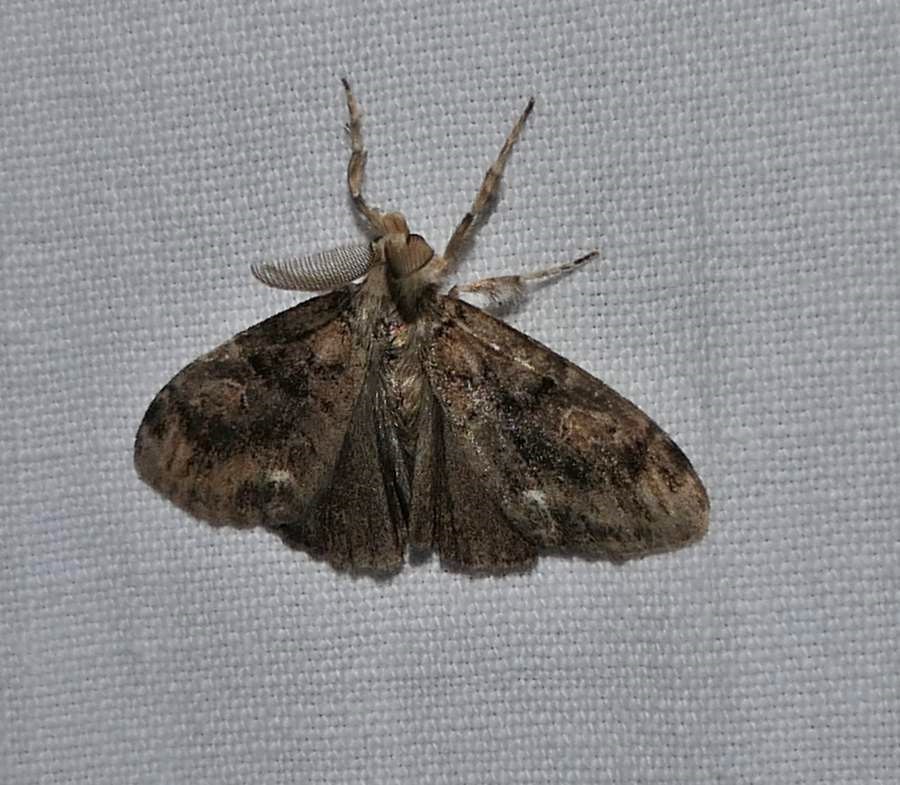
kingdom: Animalia
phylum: Arthropoda
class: Insecta
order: Lepidoptera
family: Erebidae
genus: Orgyia
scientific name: Orgyia definita
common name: Definite tussock moth
